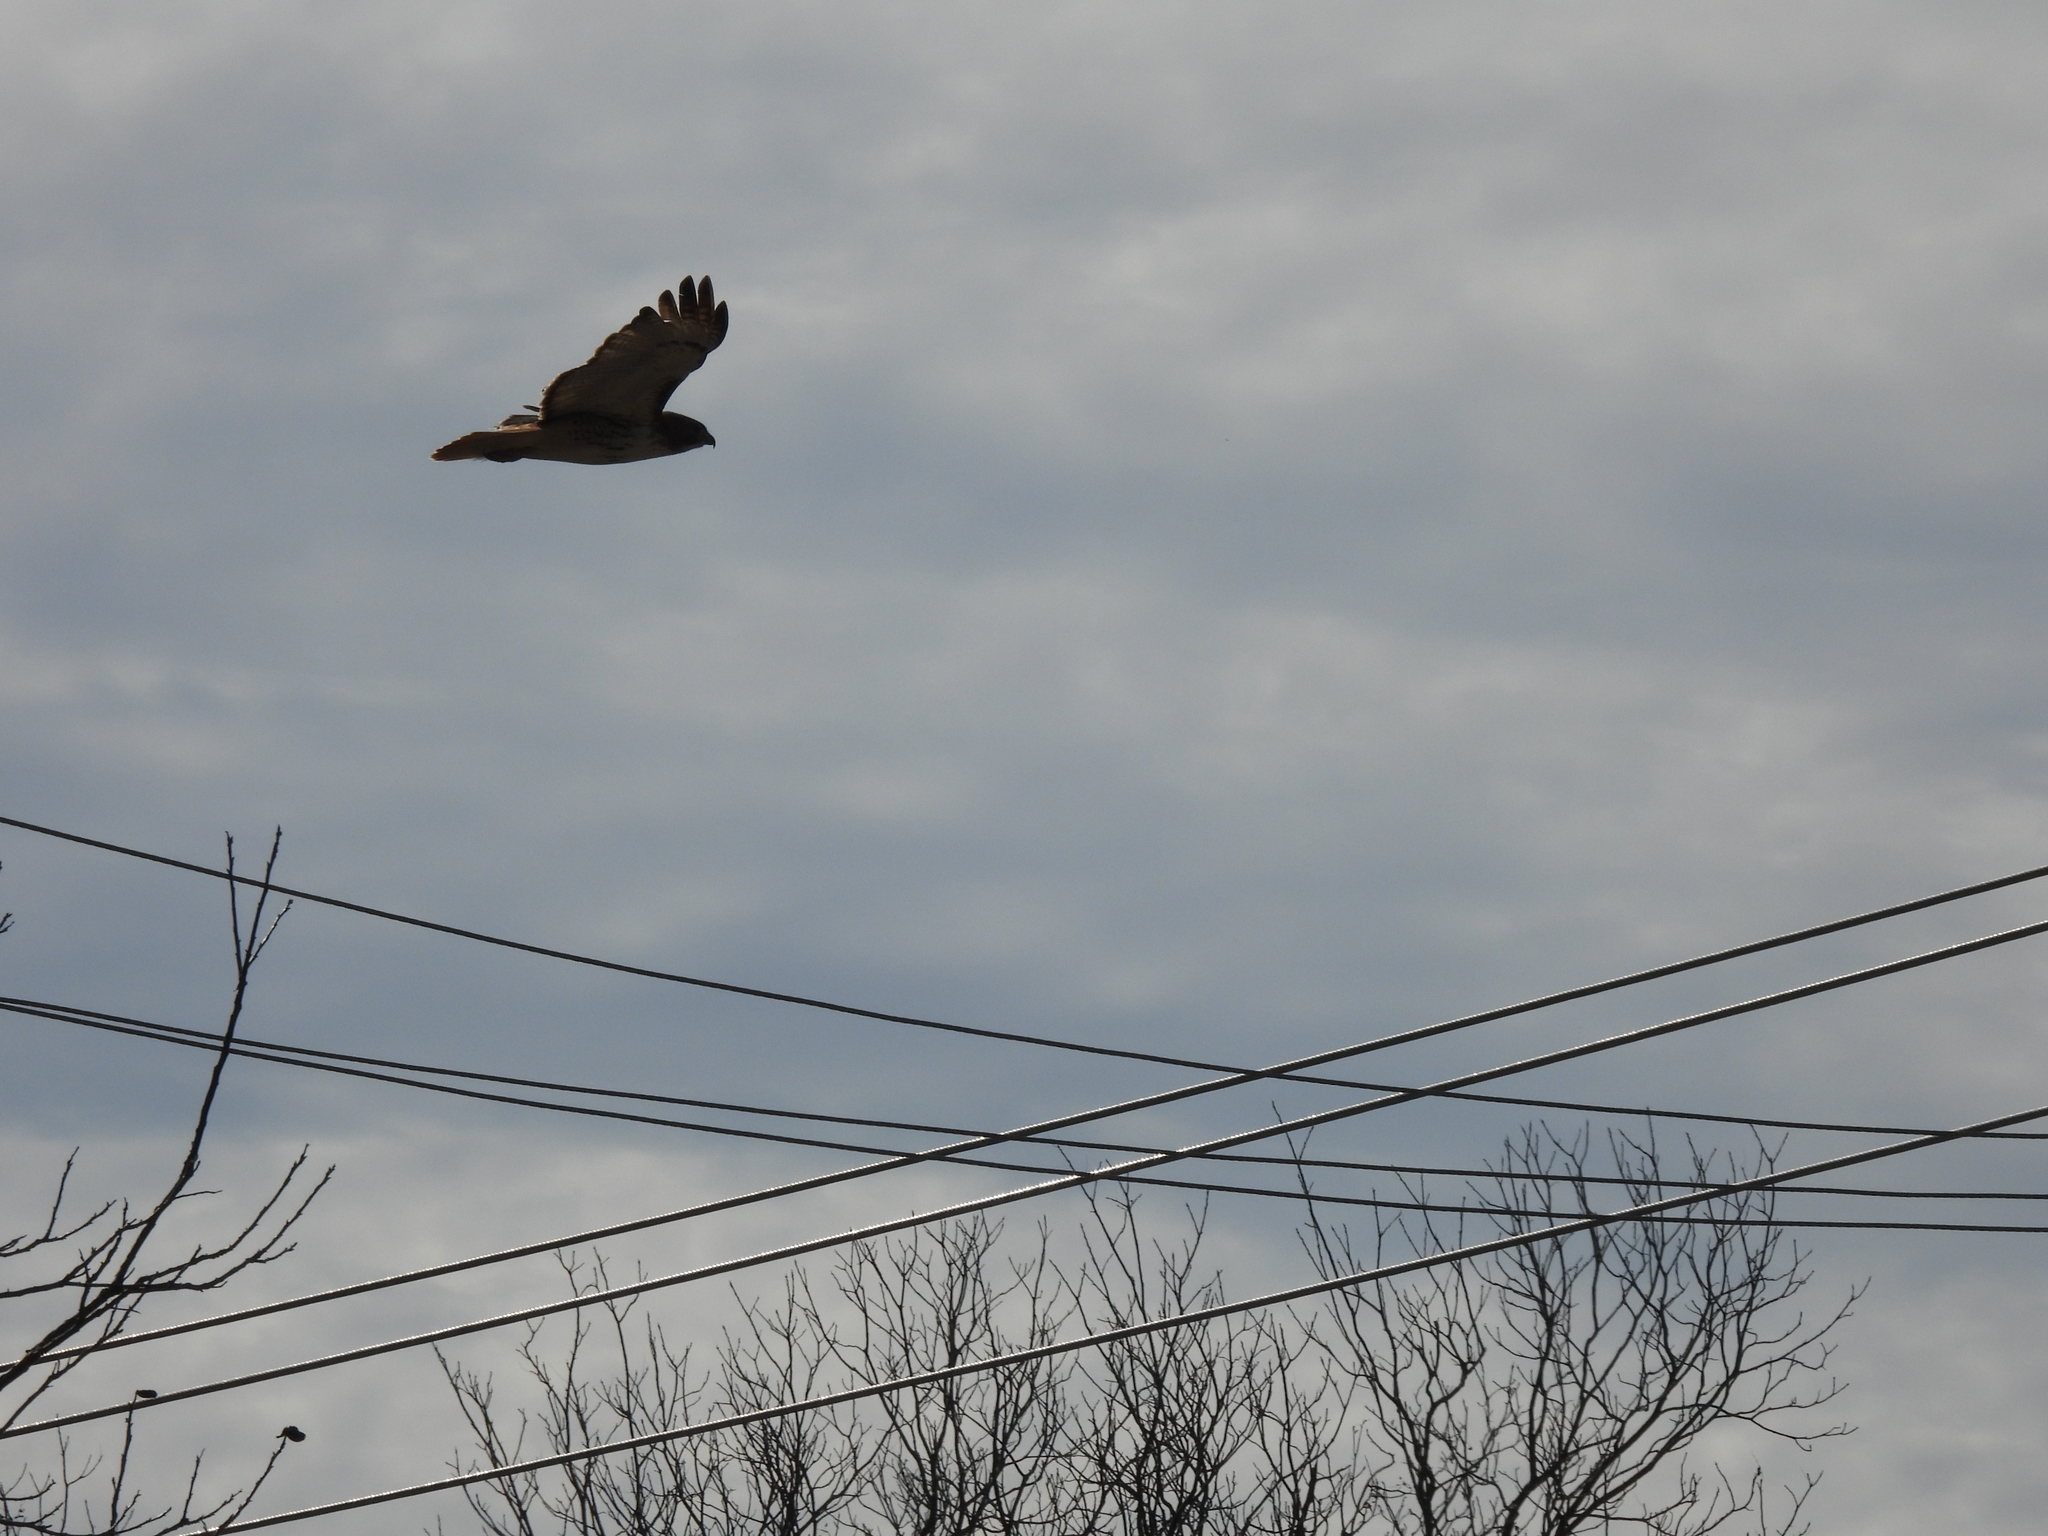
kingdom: Animalia
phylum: Chordata
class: Aves
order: Accipitriformes
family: Accipitridae
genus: Buteo
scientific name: Buteo jamaicensis
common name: Red-tailed hawk
